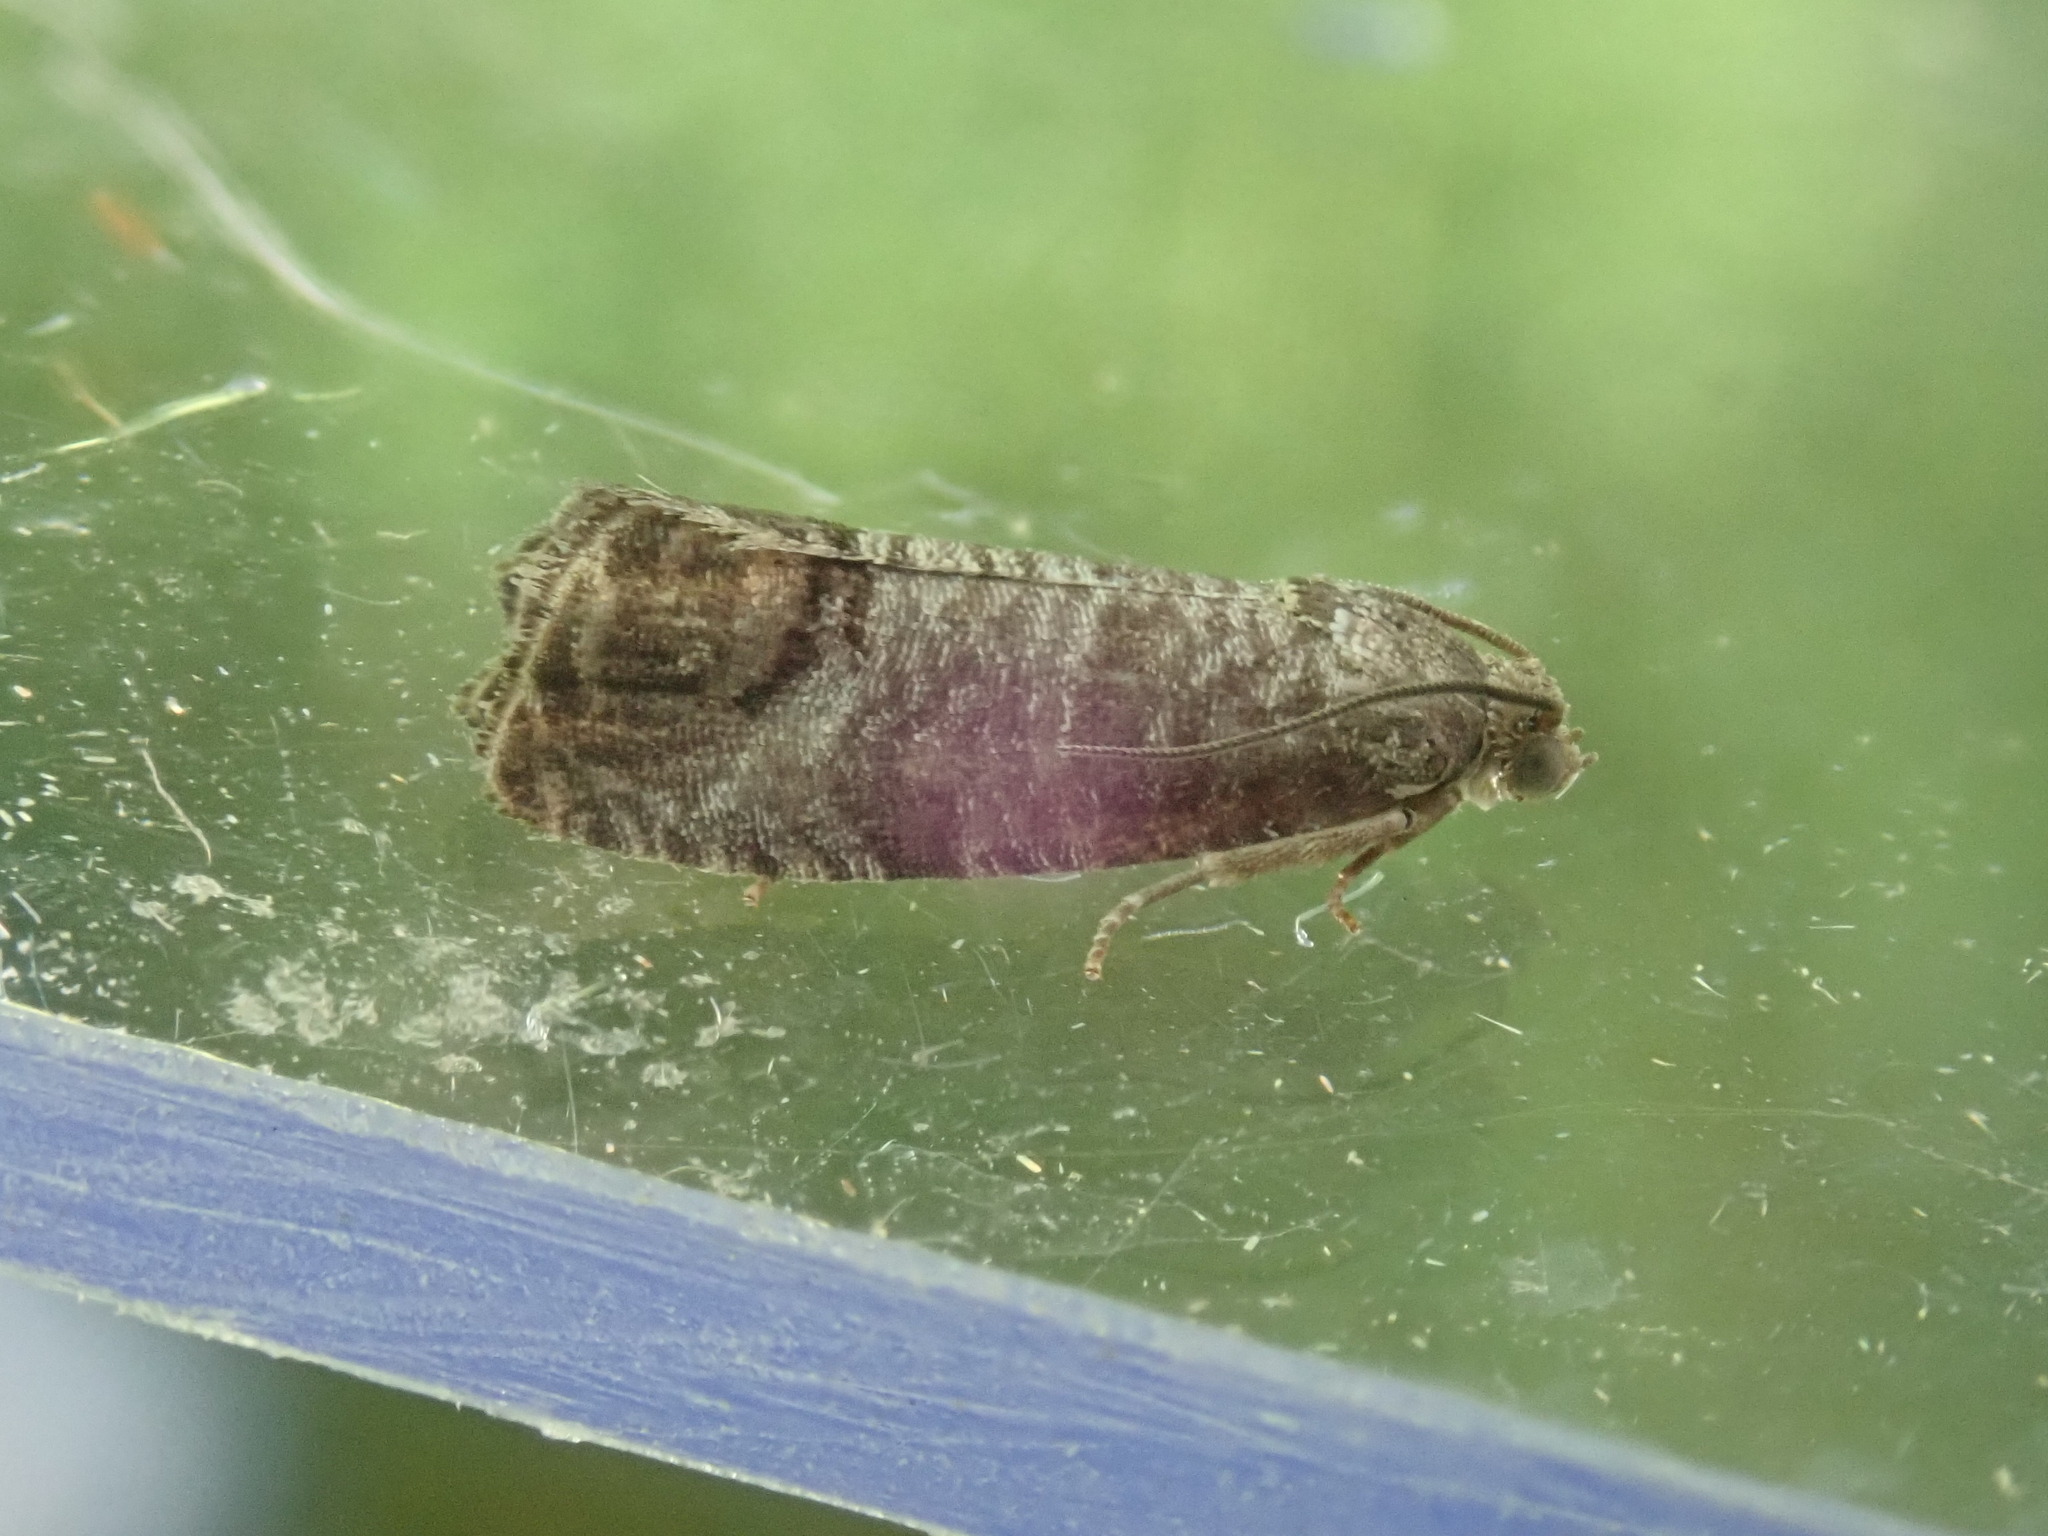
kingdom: Animalia
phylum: Arthropoda
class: Insecta
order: Lepidoptera
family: Tortricidae
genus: Cydia
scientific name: Cydia pomonella
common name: Codling moth
